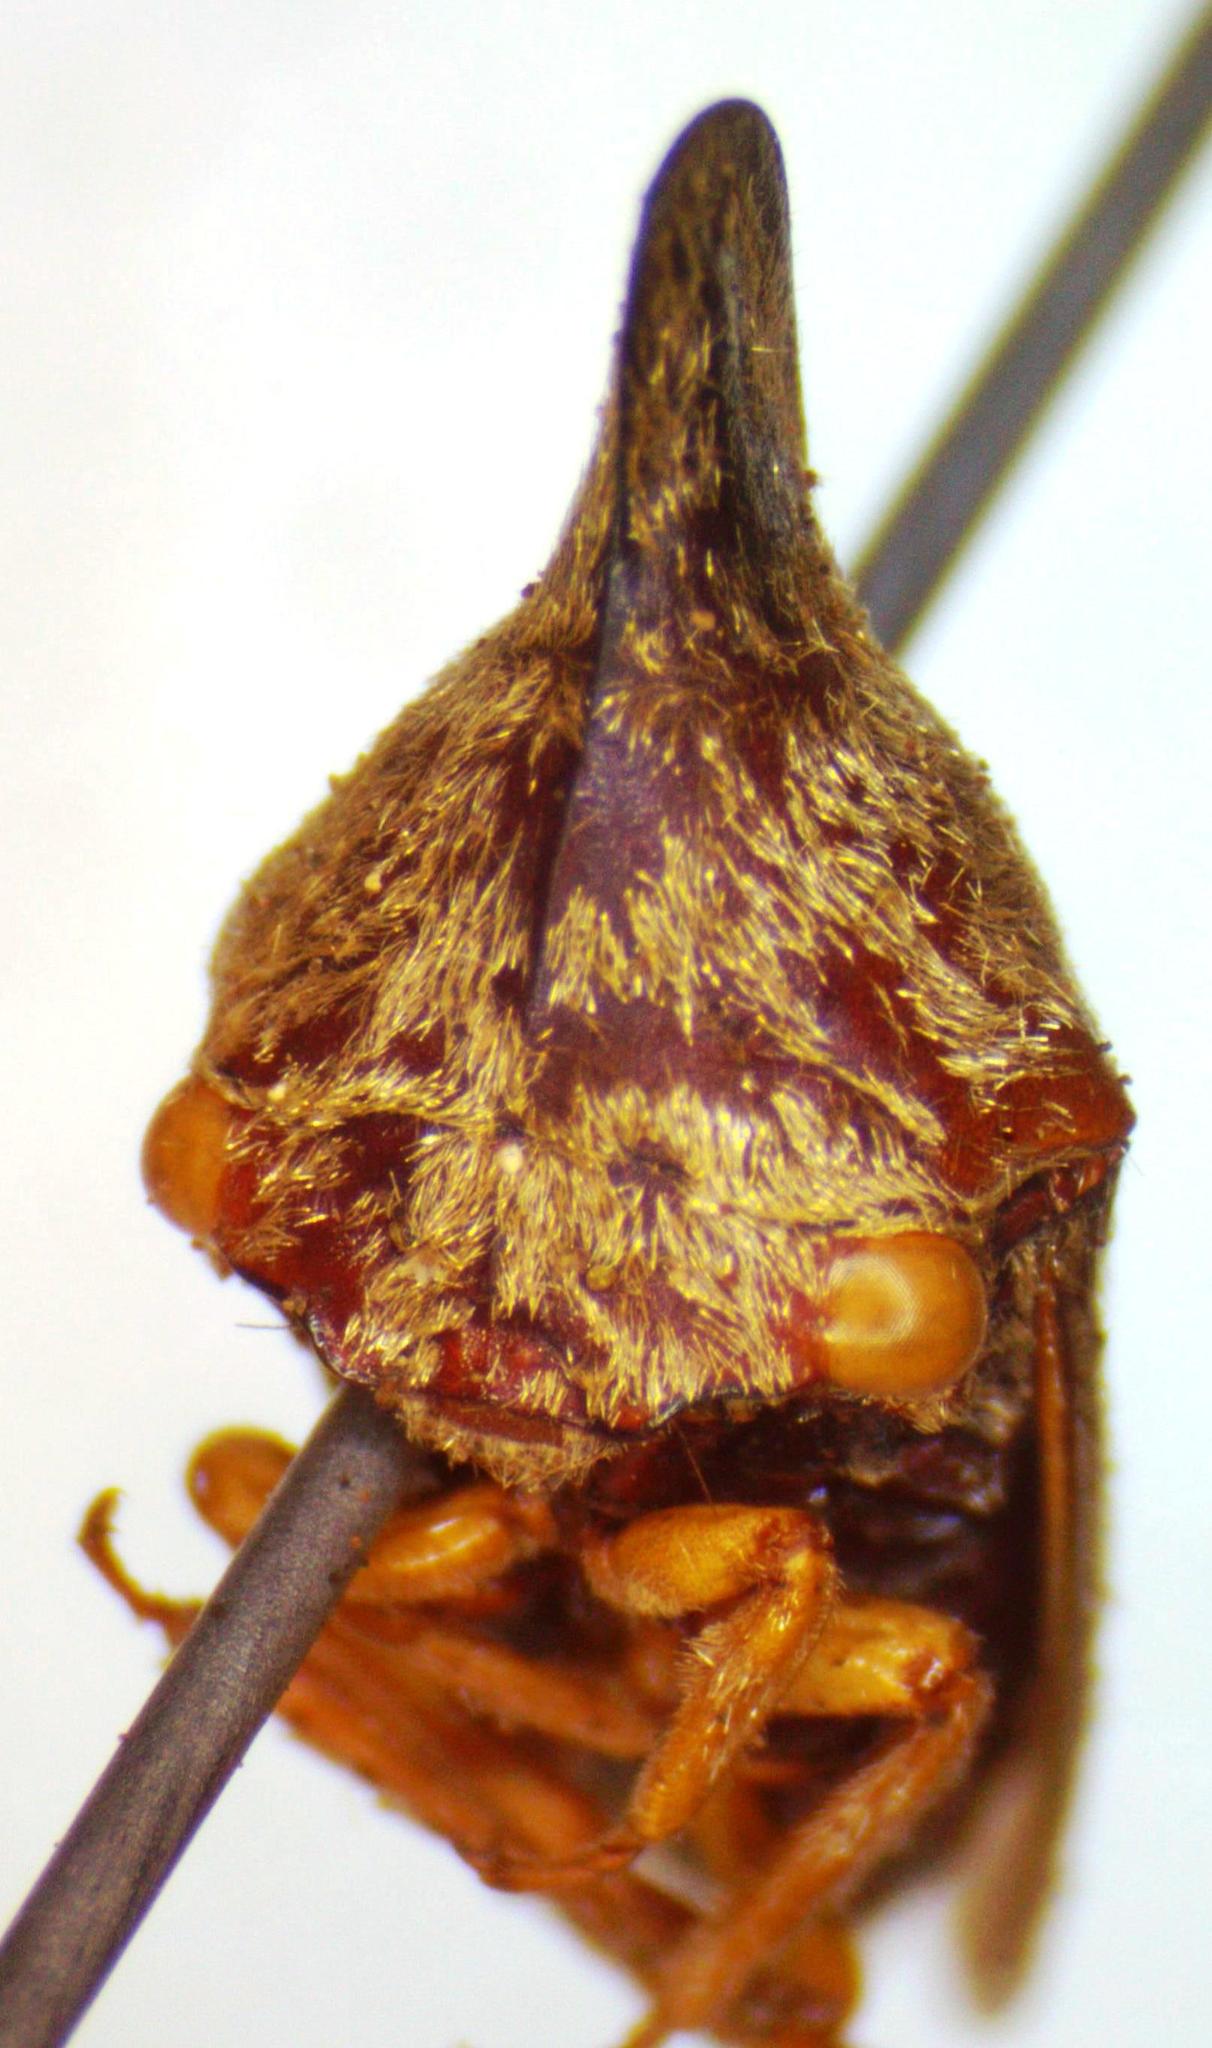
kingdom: Animalia
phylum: Arthropoda
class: Insecta
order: Hemiptera
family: Membracidae
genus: Calloconophora
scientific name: Calloconophora obliqua
